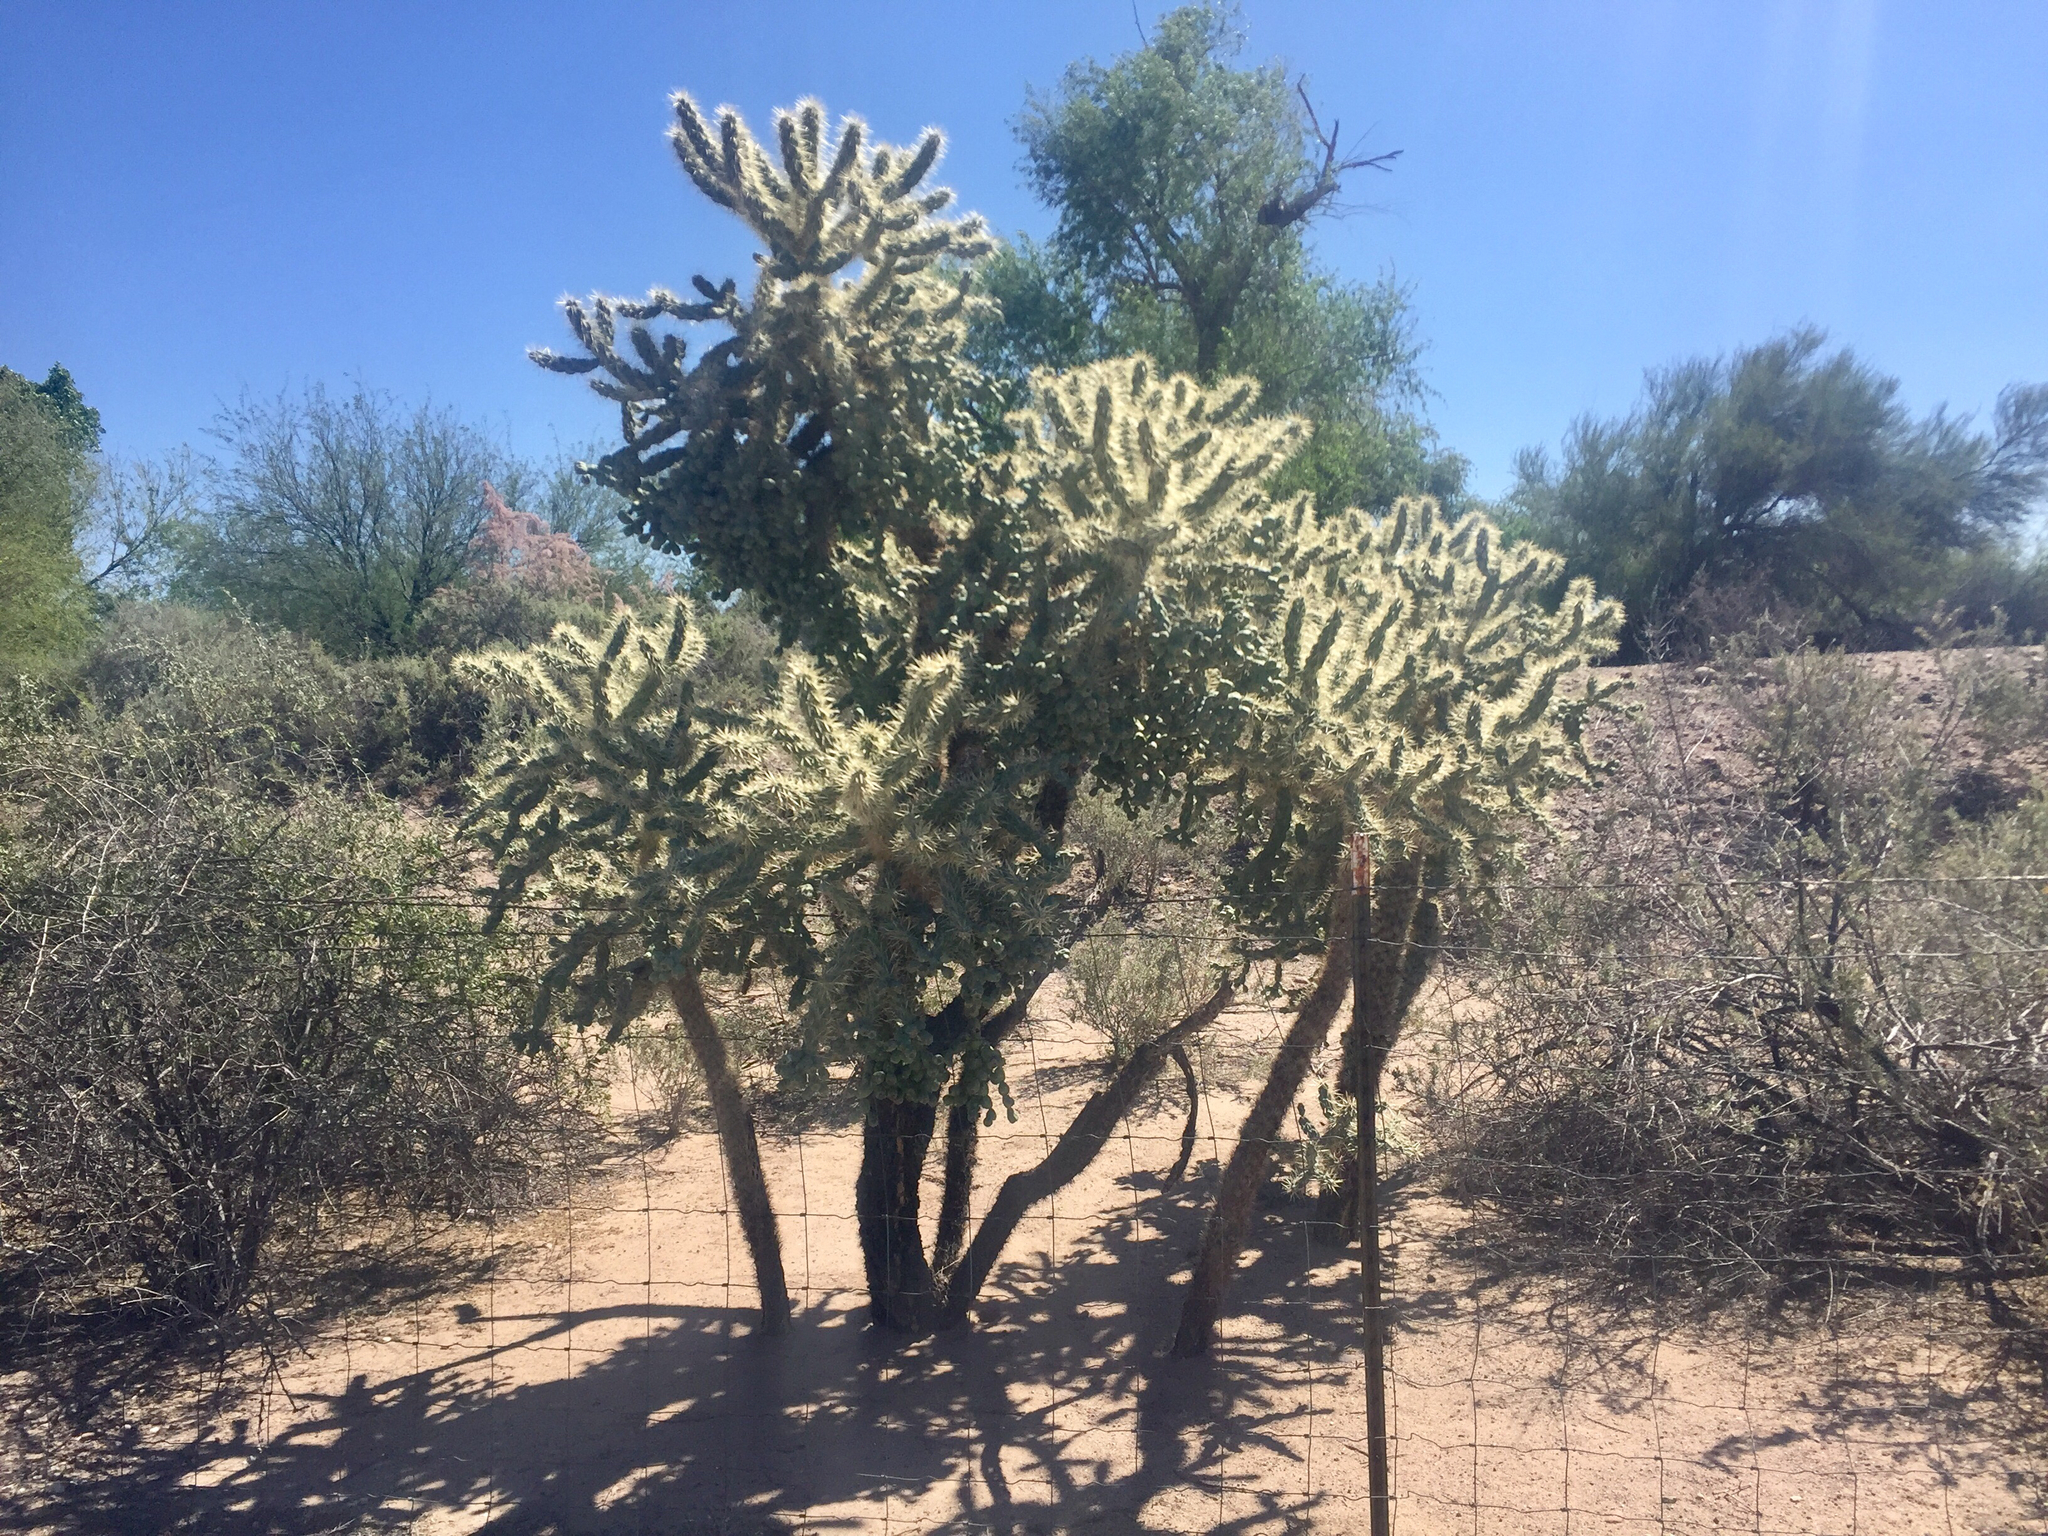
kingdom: Plantae
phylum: Tracheophyta
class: Magnoliopsida
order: Caryophyllales
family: Cactaceae
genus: Cylindropuntia
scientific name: Cylindropuntia fulgida
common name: Jumping cholla
